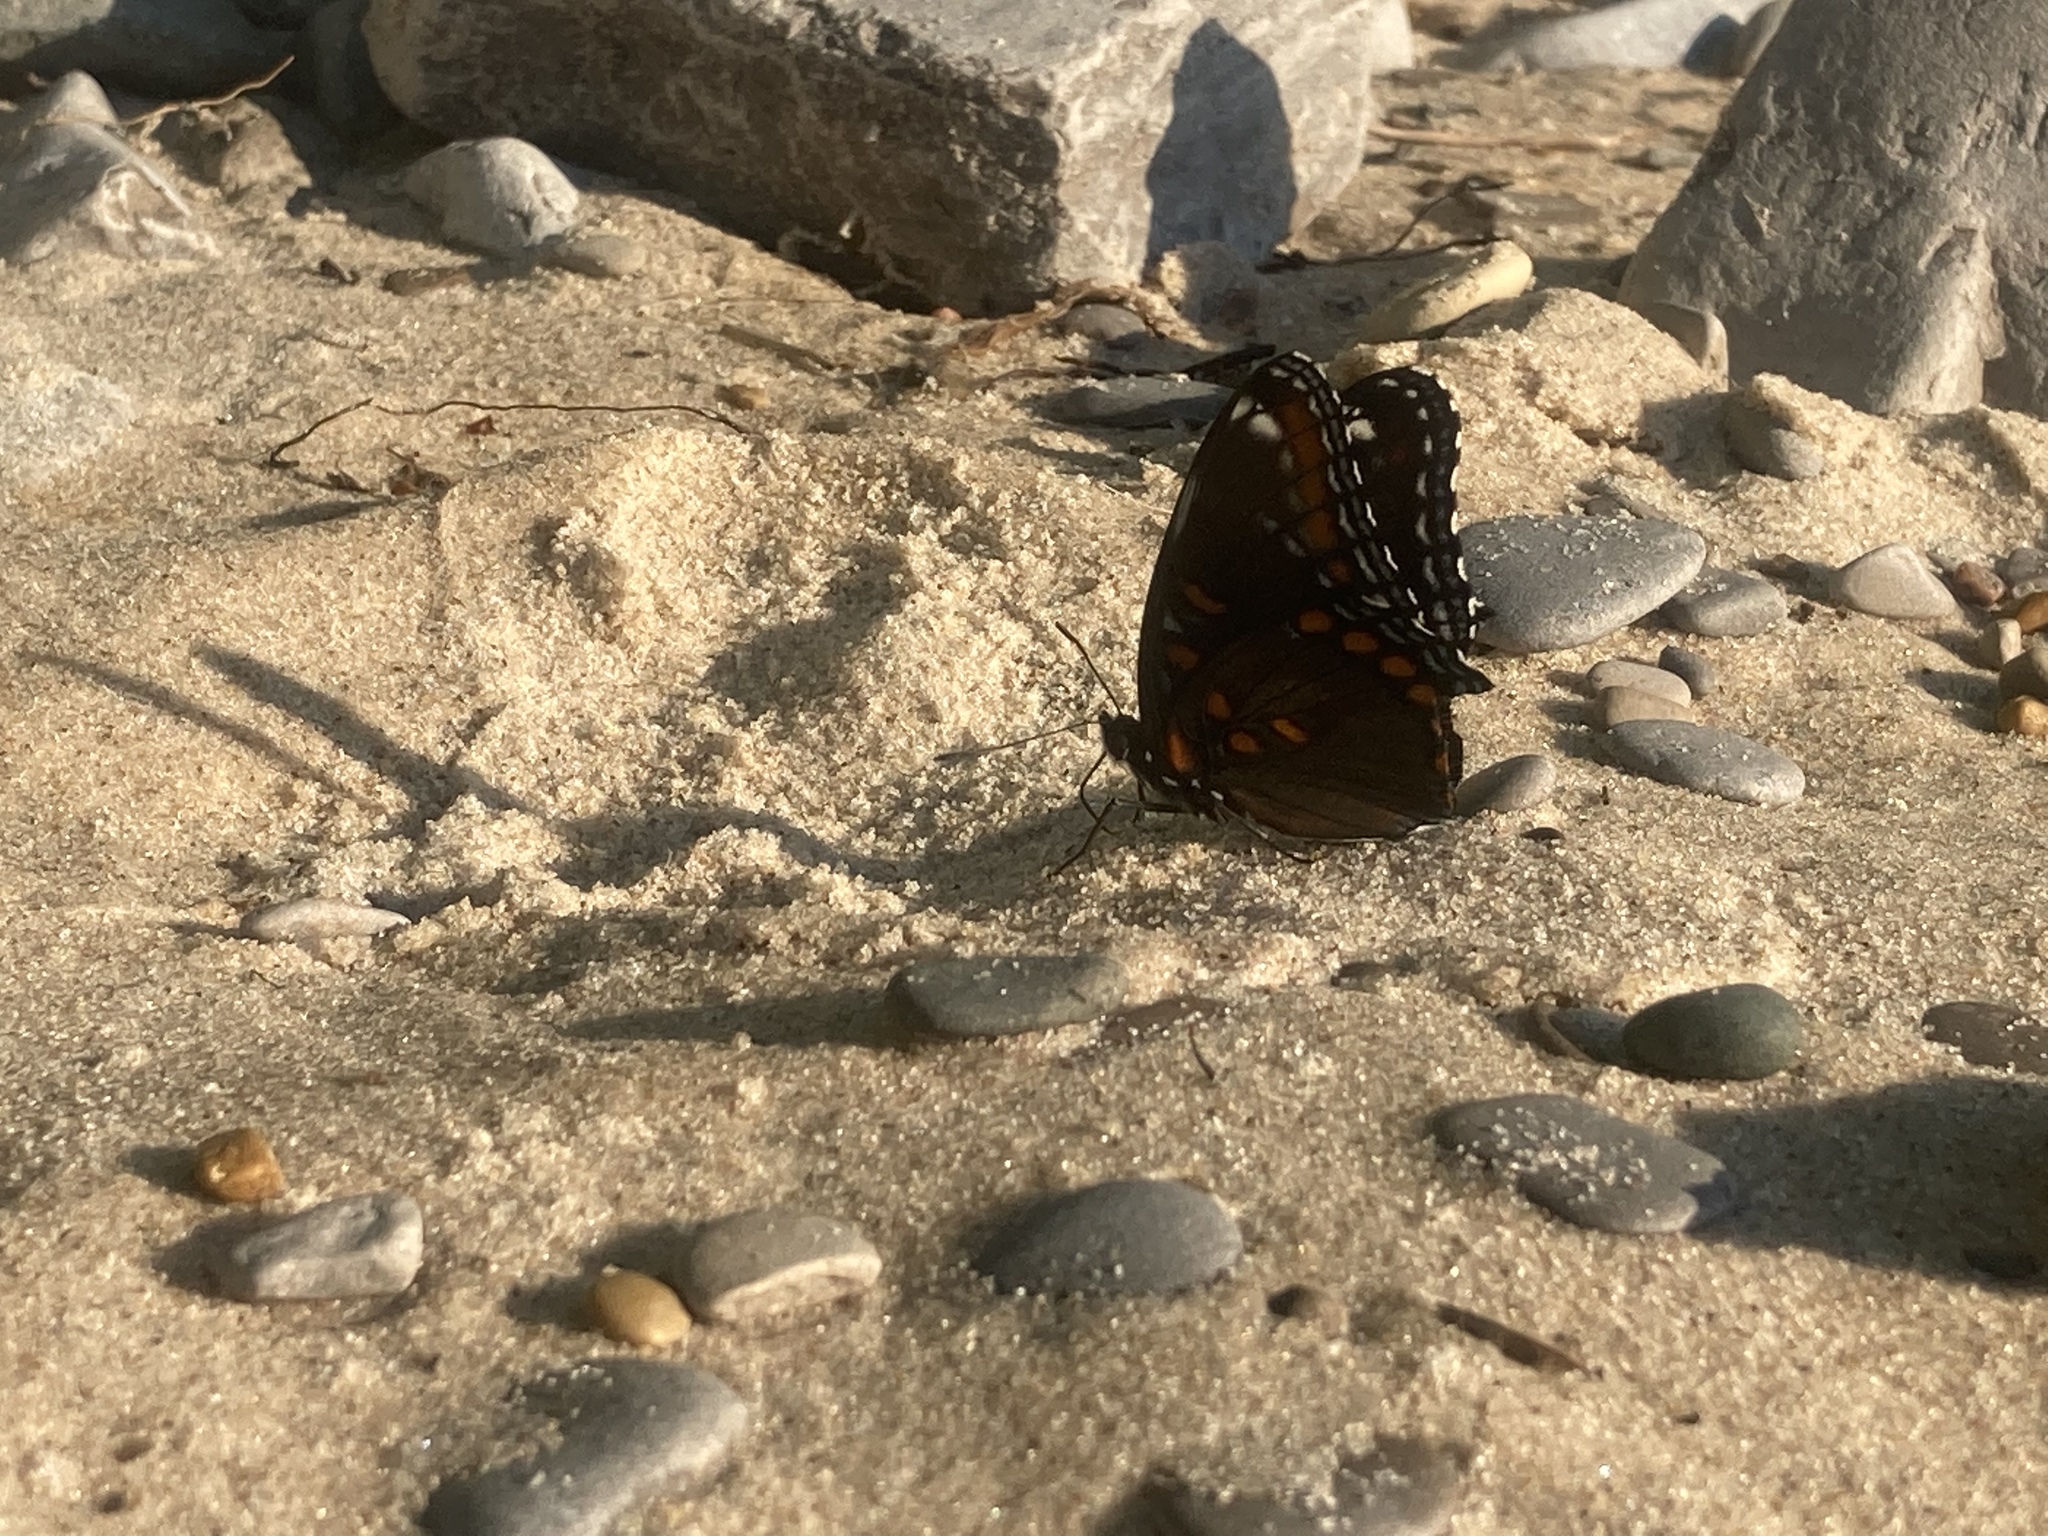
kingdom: Animalia
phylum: Arthropoda
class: Insecta
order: Lepidoptera
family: Nymphalidae
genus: Limenitis
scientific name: Limenitis arthemis
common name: Red-spotted admiral
